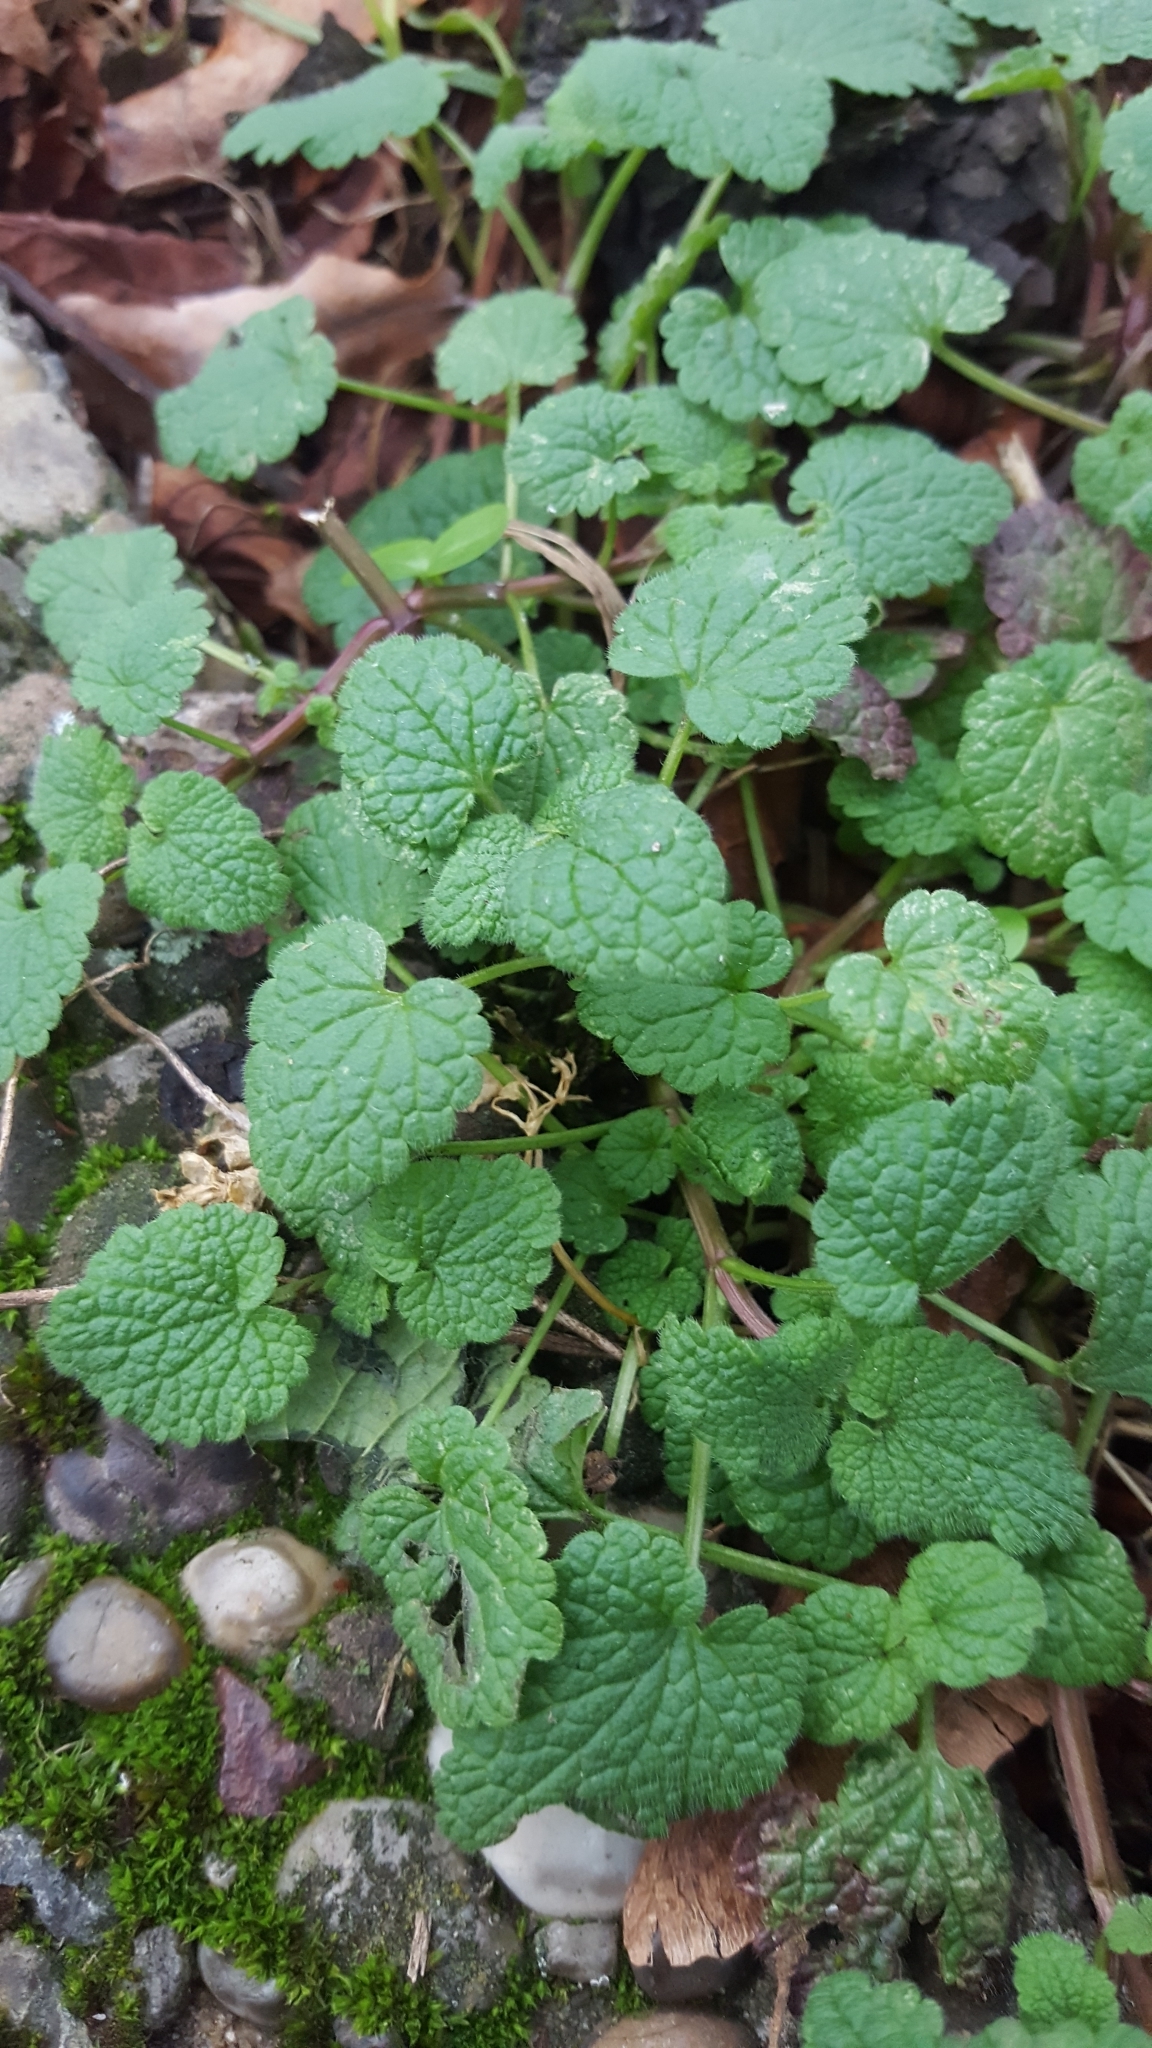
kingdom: Plantae
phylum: Tracheophyta
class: Magnoliopsida
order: Lamiales
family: Lamiaceae
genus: Lamium
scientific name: Lamium purpureum
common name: Red dead-nettle
